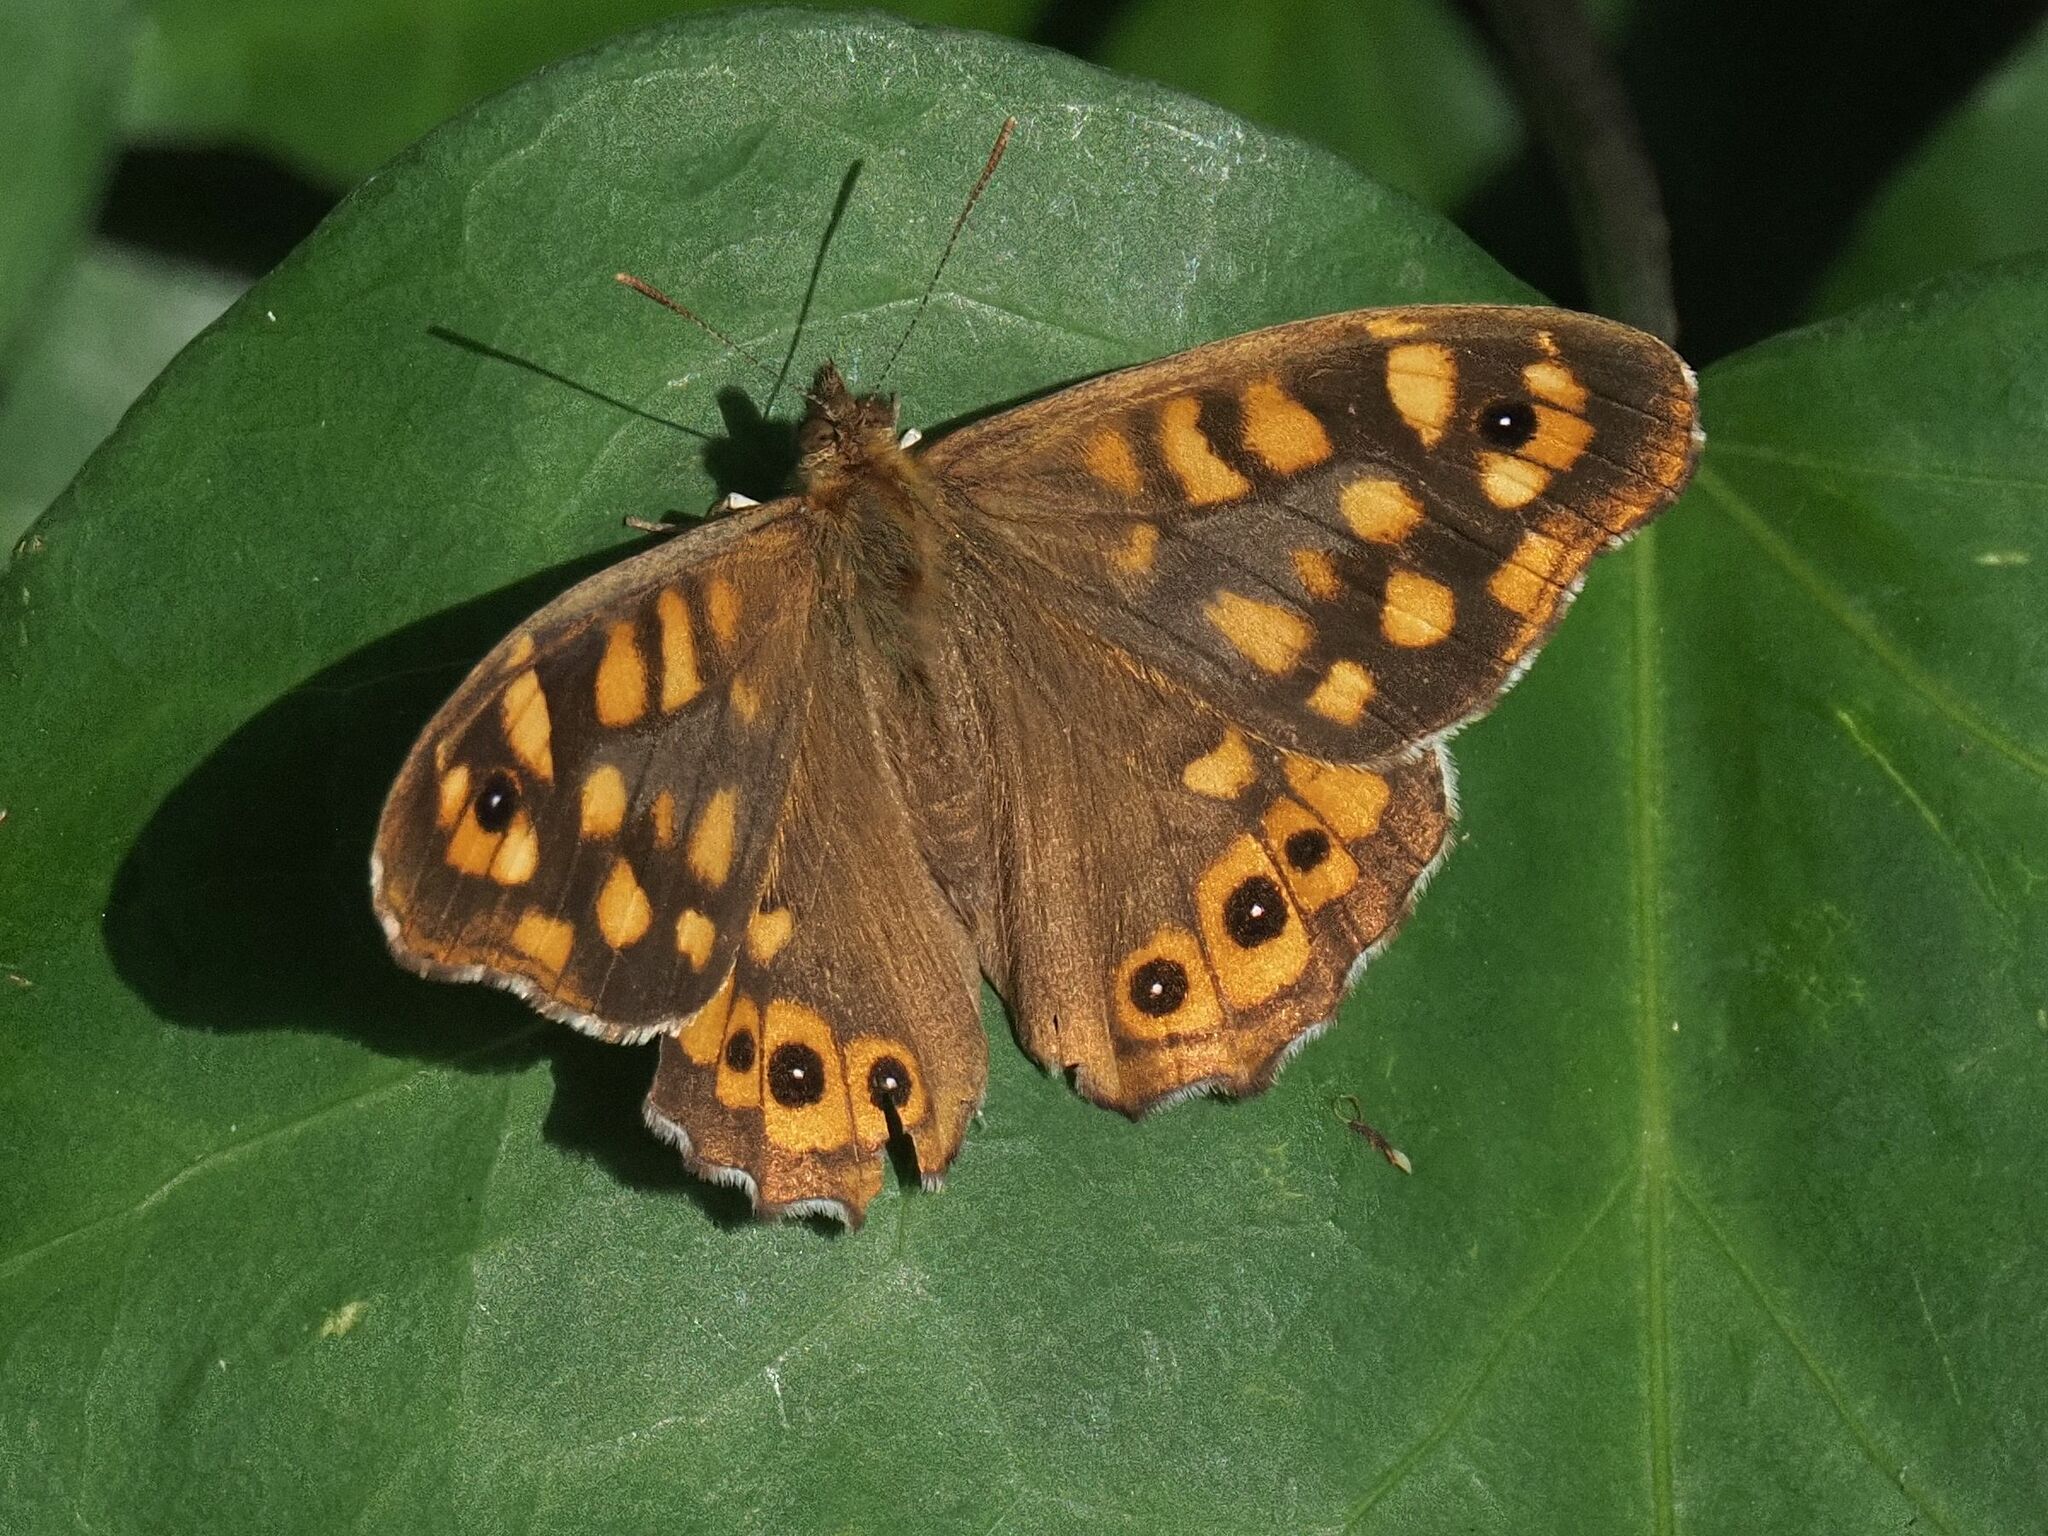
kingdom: Animalia
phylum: Arthropoda
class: Insecta
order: Lepidoptera
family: Nymphalidae
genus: Pararge
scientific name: Pararge aegeria
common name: Speckled wood
